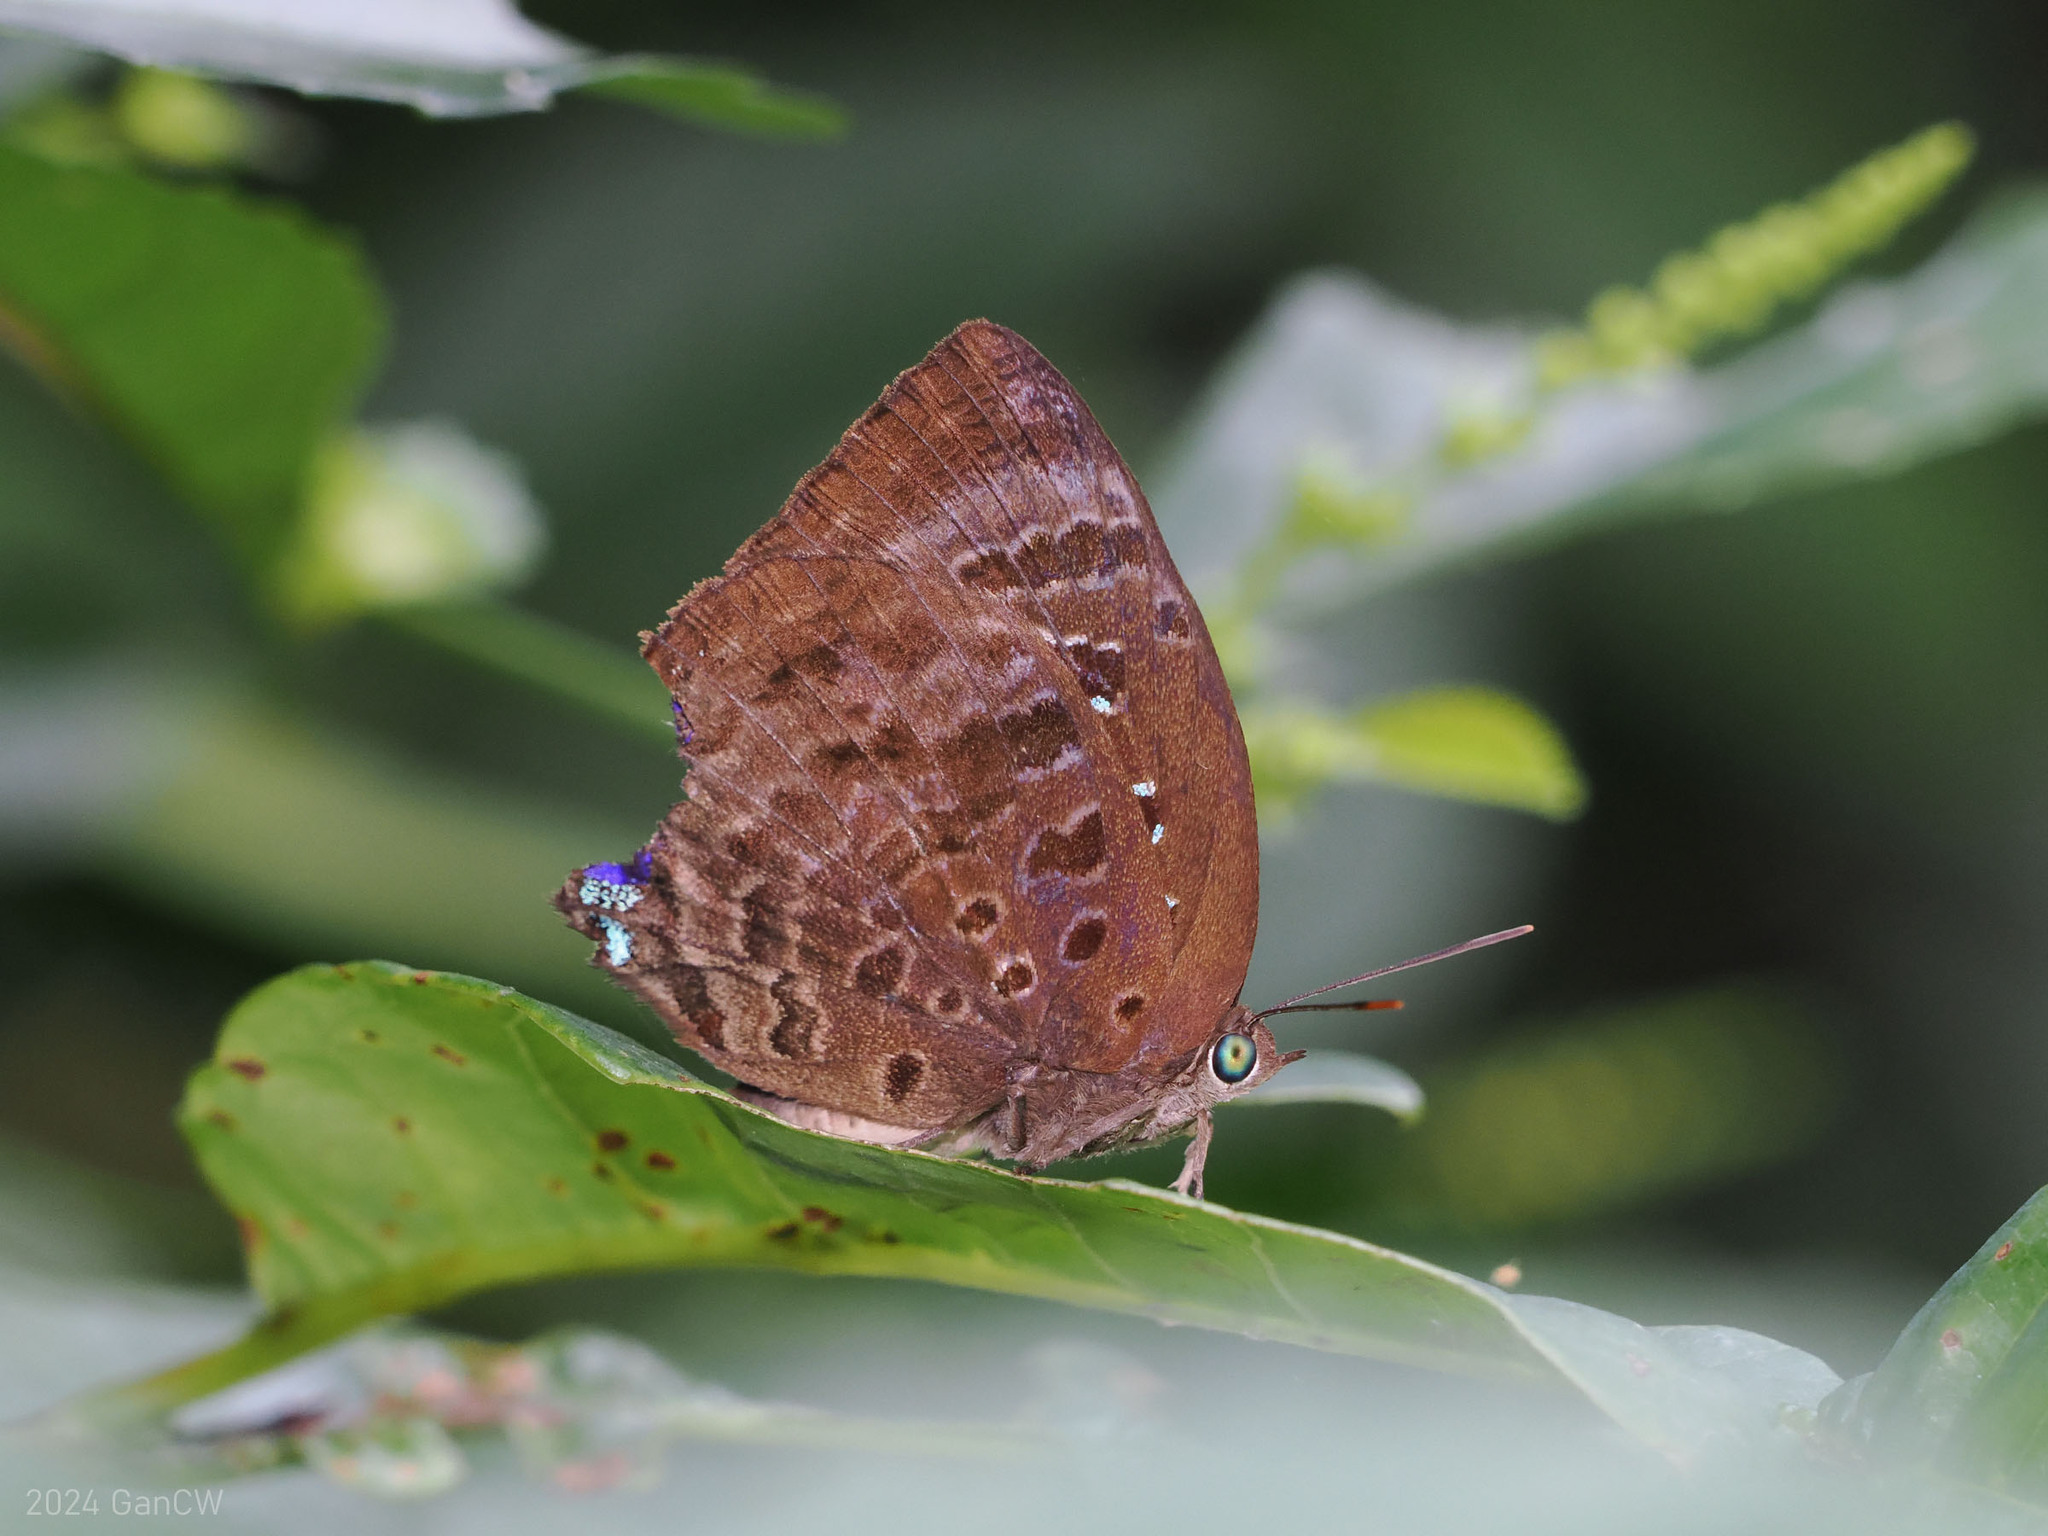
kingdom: Animalia
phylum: Arthropoda
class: Insecta
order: Lepidoptera
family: Lycaenidae
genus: Arhopala
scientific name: Arhopala centaurus
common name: Dull oak-blue
